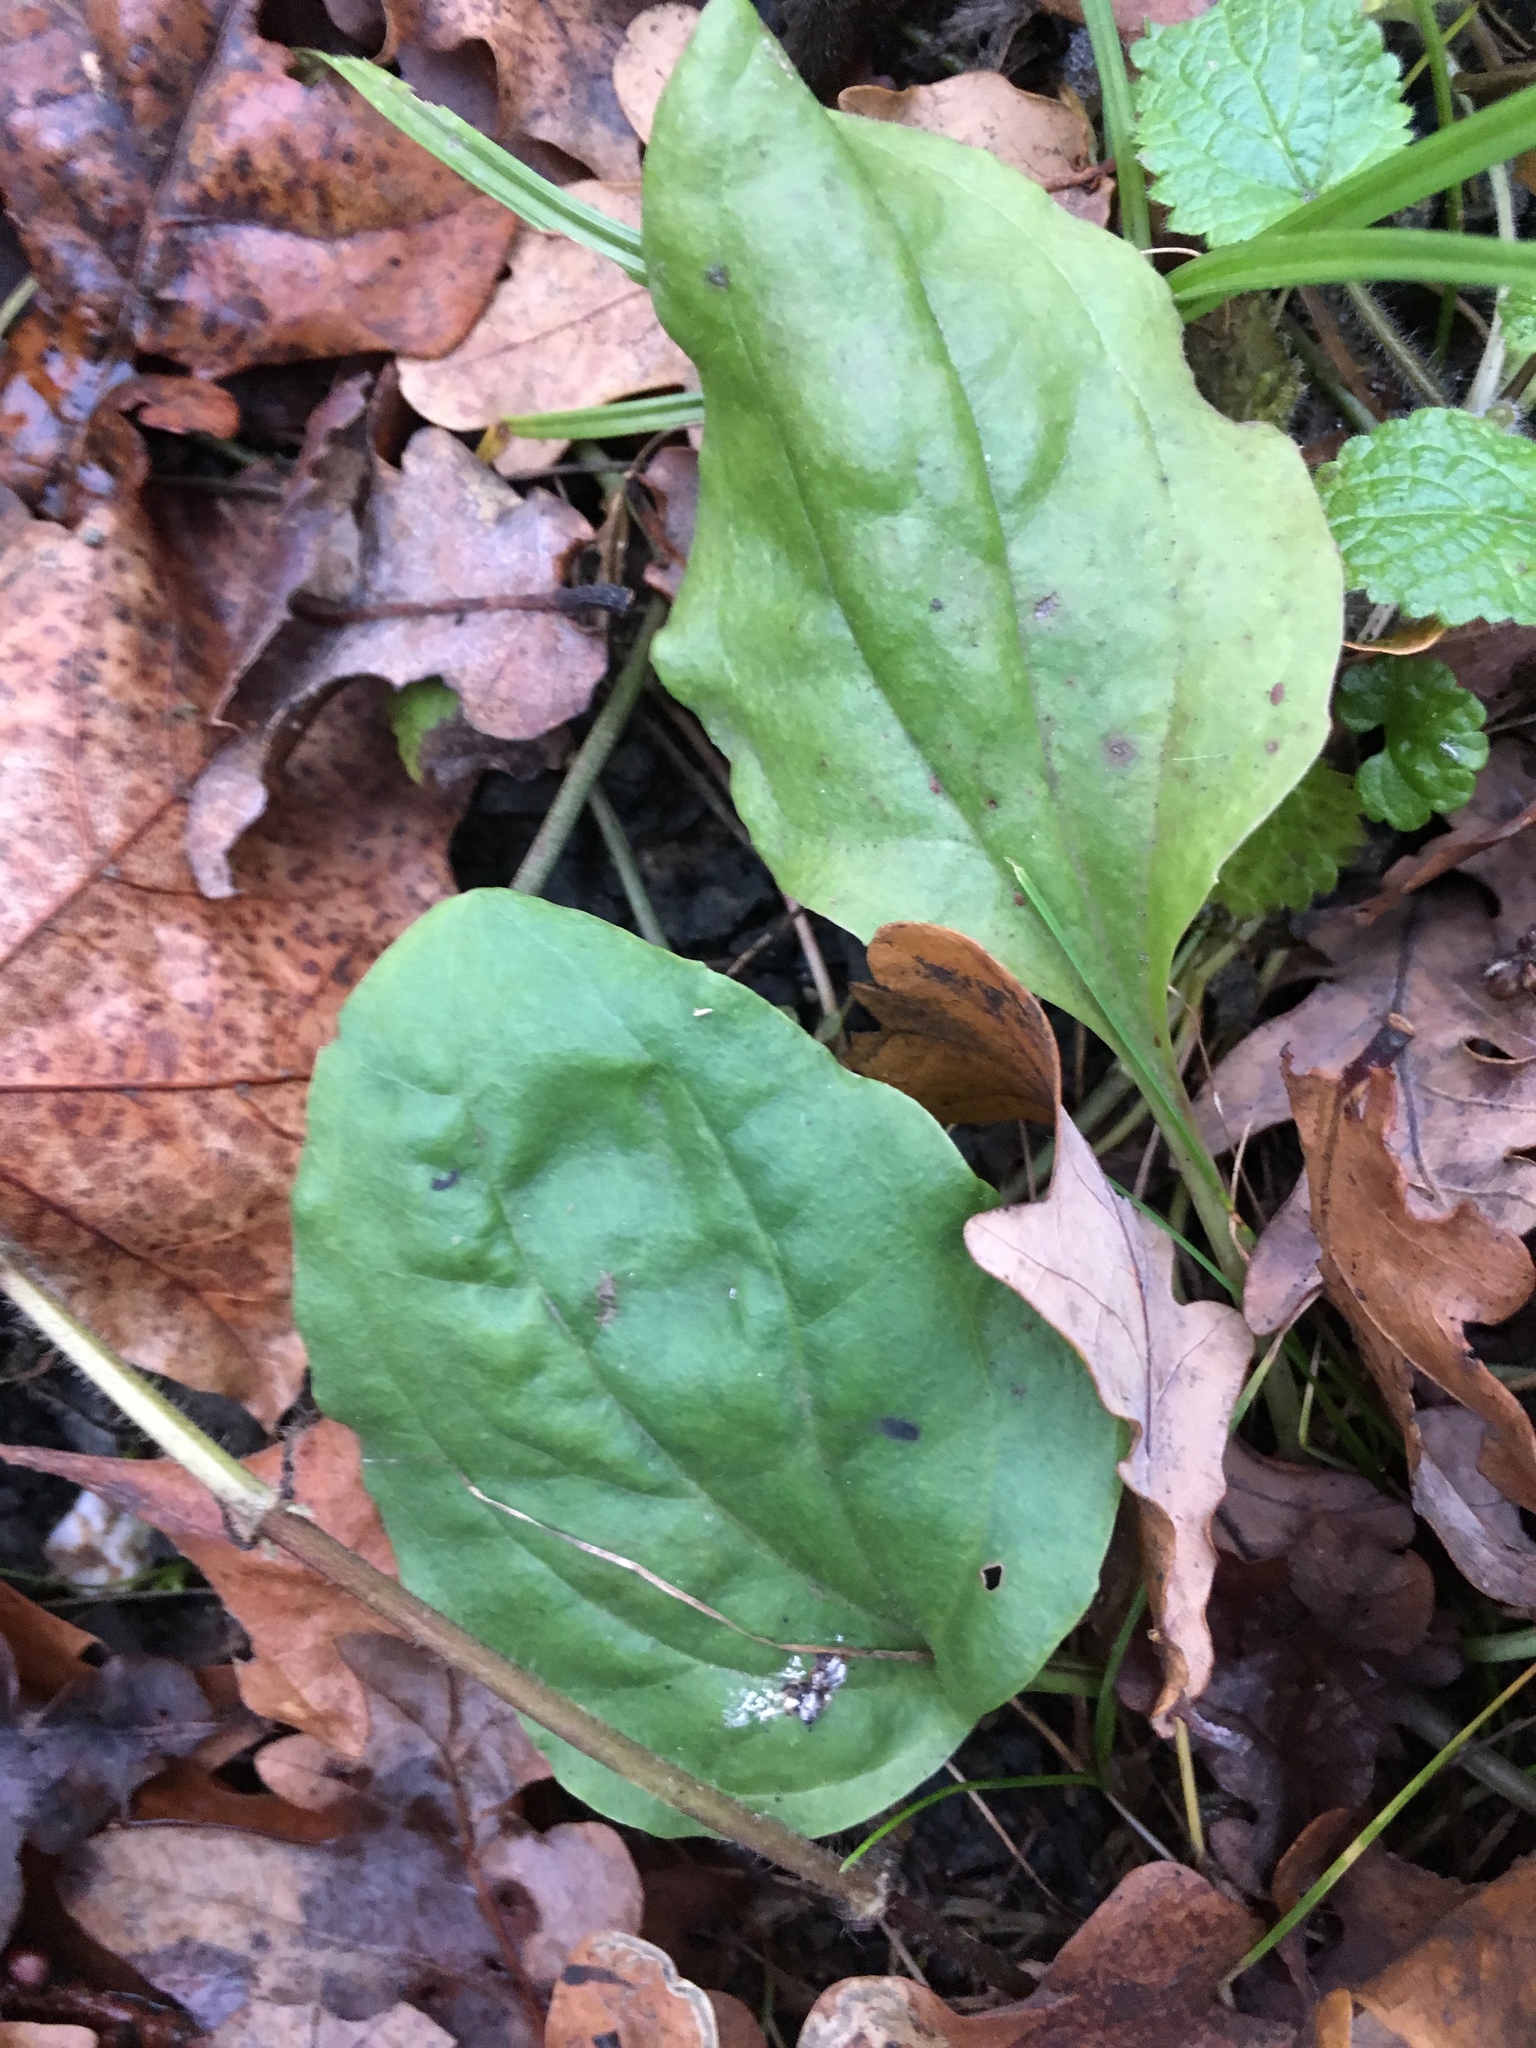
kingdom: Plantae
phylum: Tracheophyta
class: Magnoliopsida
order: Lamiales
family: Plantaginaceae
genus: Plantago
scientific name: Plantago major
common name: Common plantain
